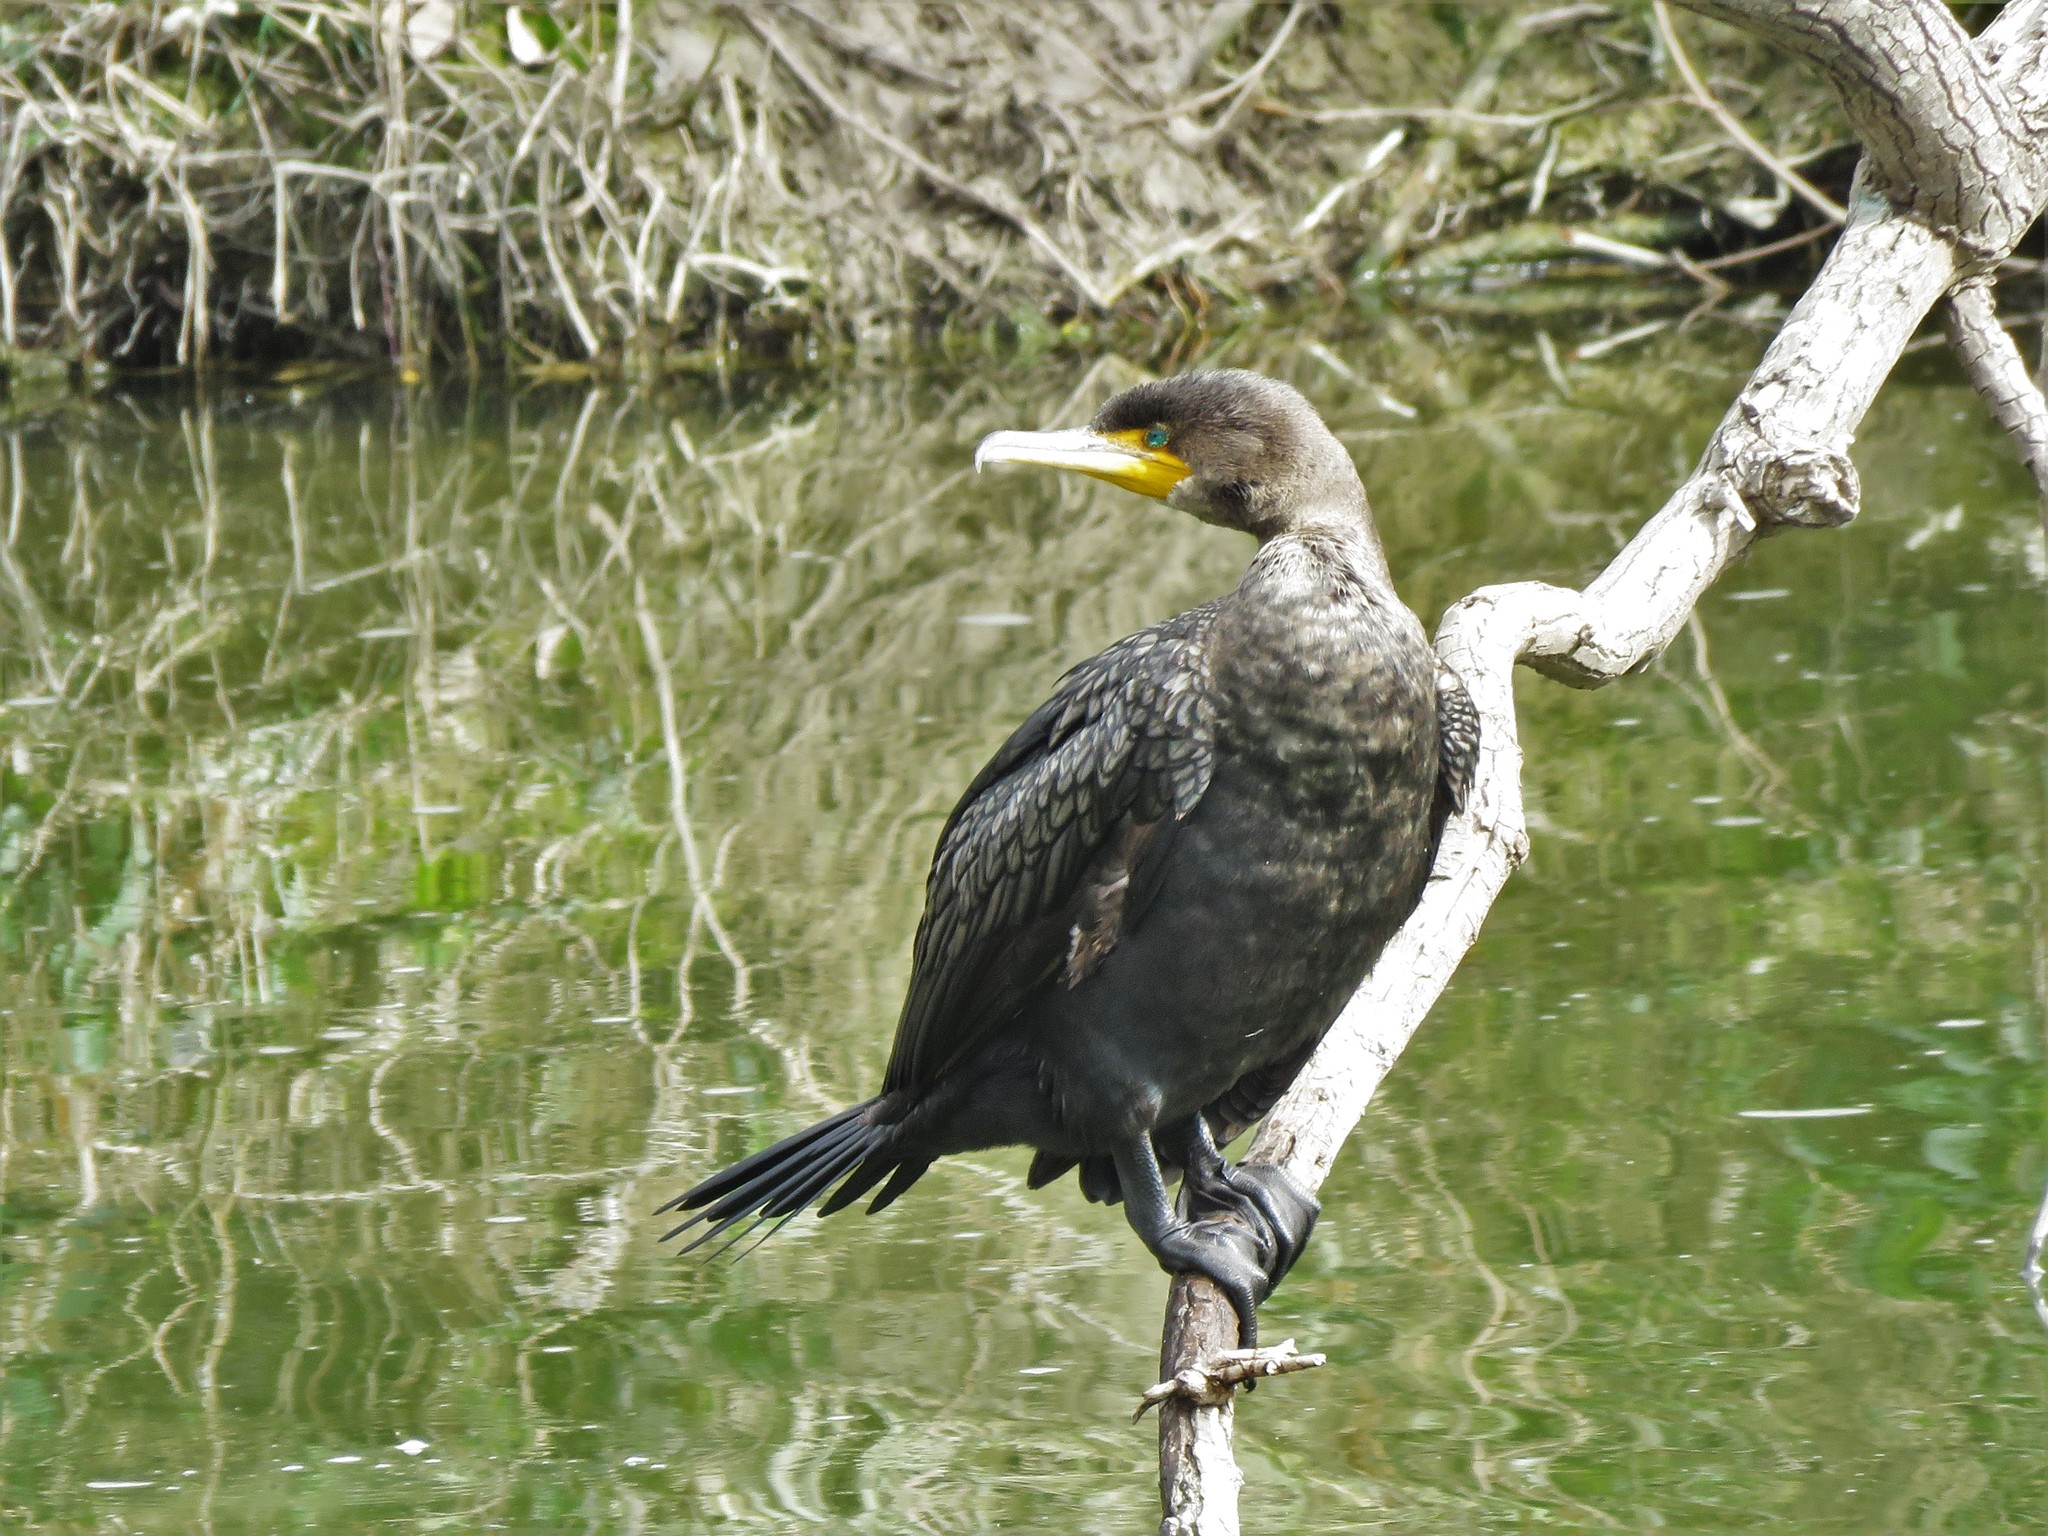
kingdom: Animalia
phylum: Chordata
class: Aves
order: Suliformes
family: Phalacrocoracidae
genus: Phalacrocorax
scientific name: Phalacrocorax auritus
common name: Double-crested cormorant
